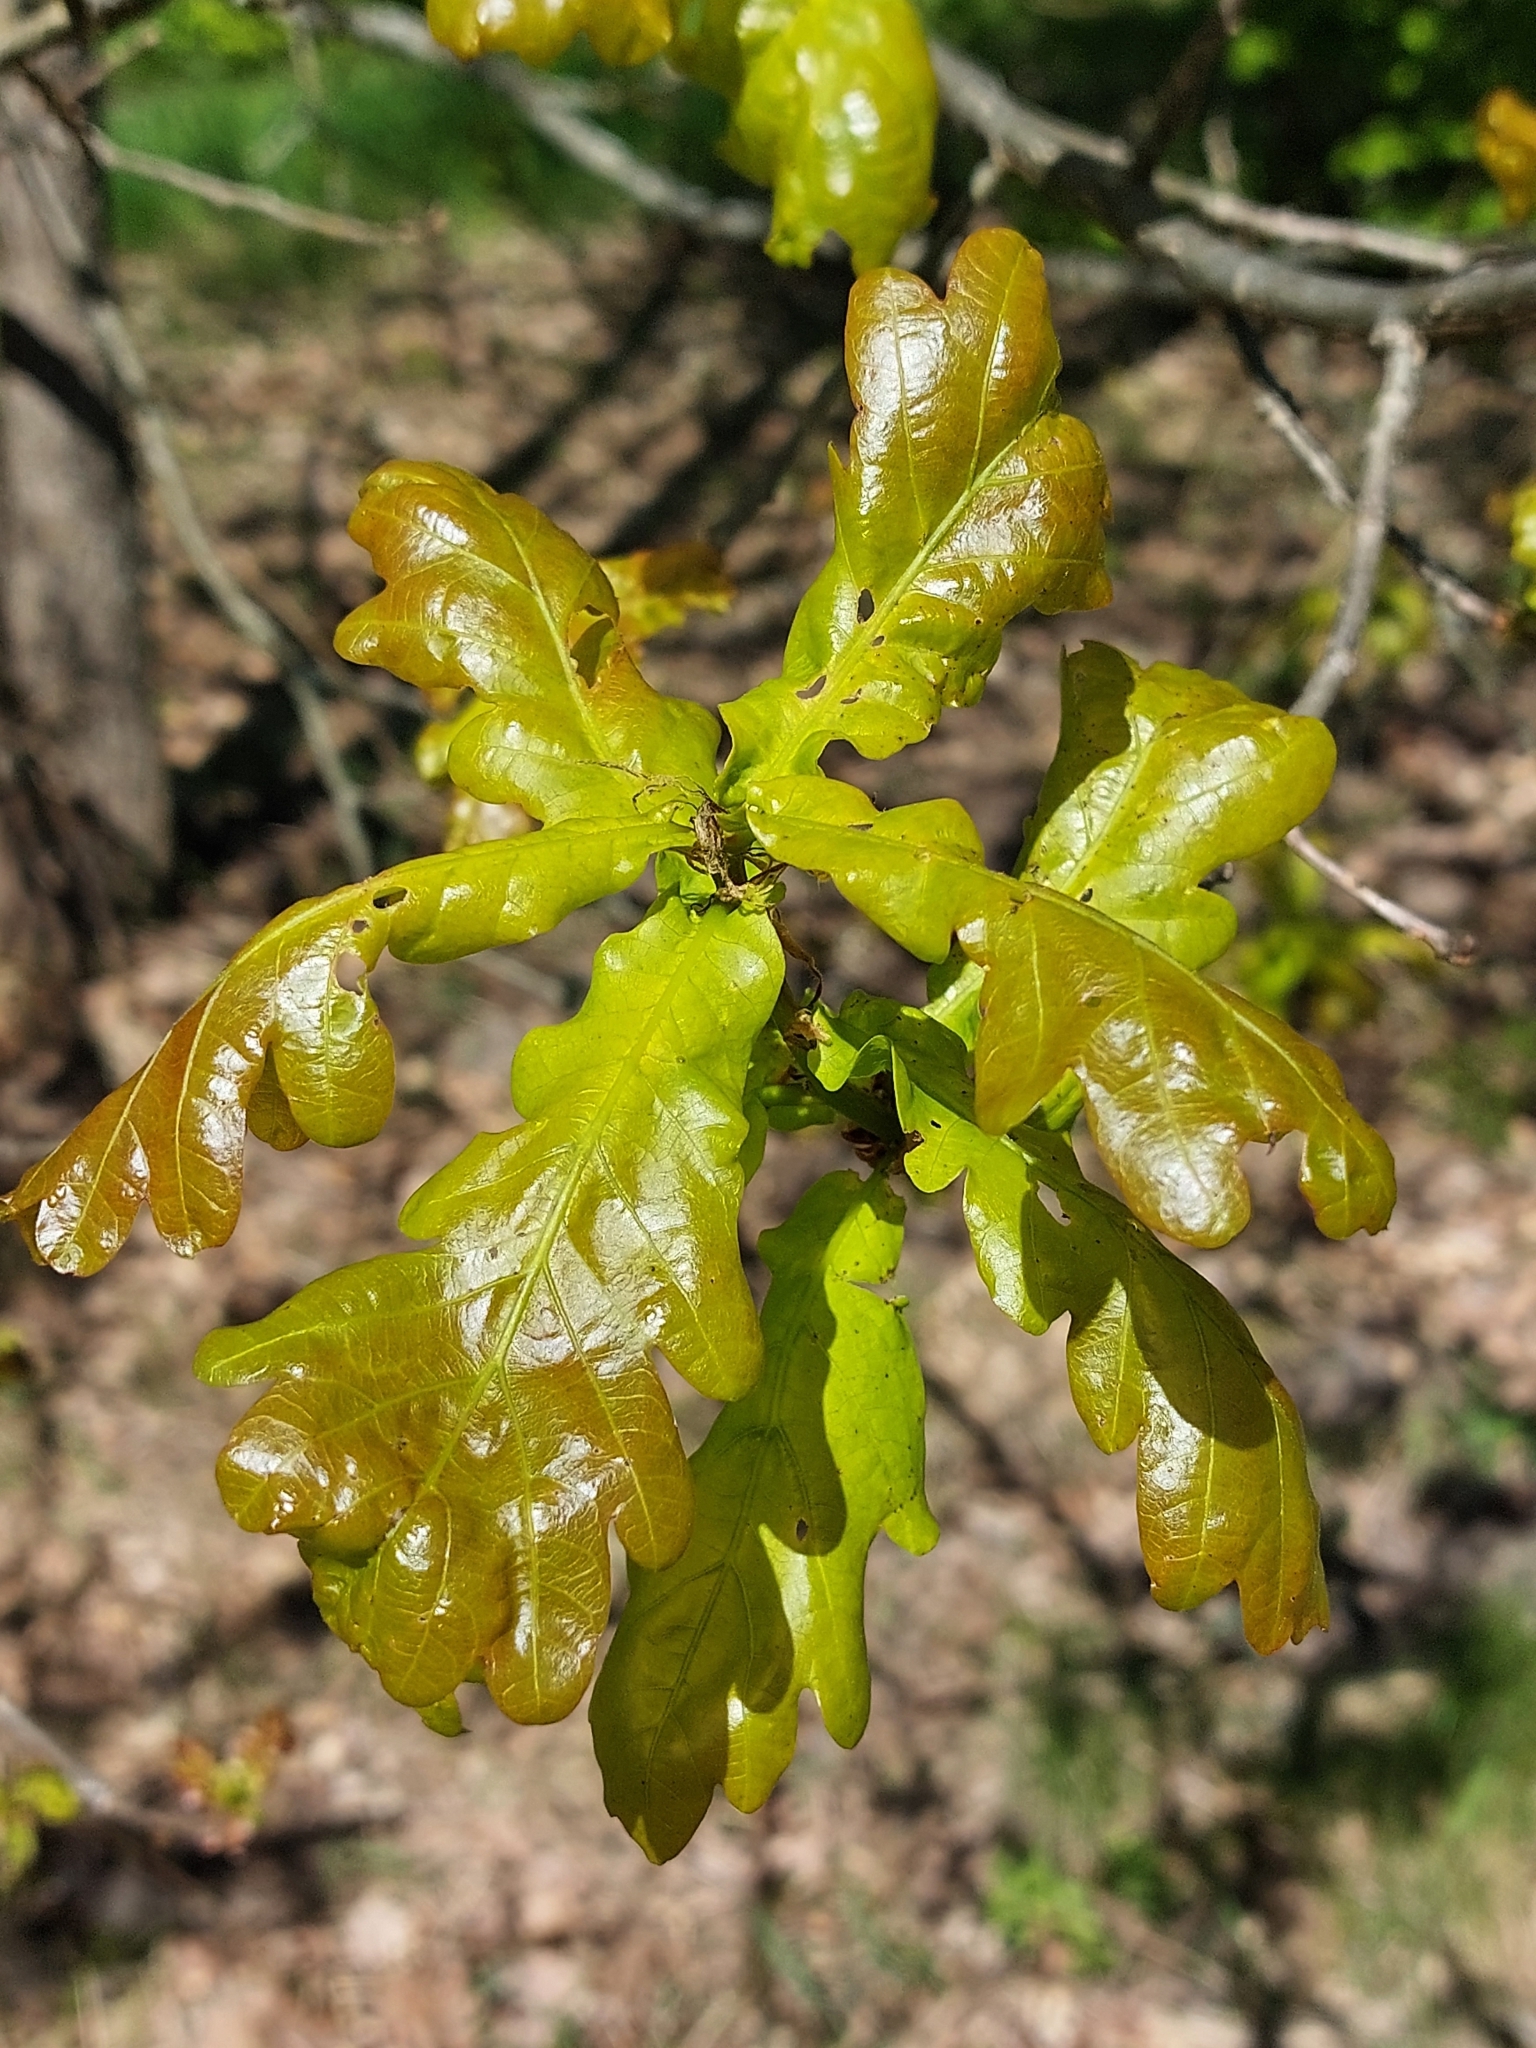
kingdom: Plantae
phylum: Tracheophyta
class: Magnoliopsida
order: Fagales
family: Fagaceae
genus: Quercus
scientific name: Quercus robur
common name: Pedunculate oak
